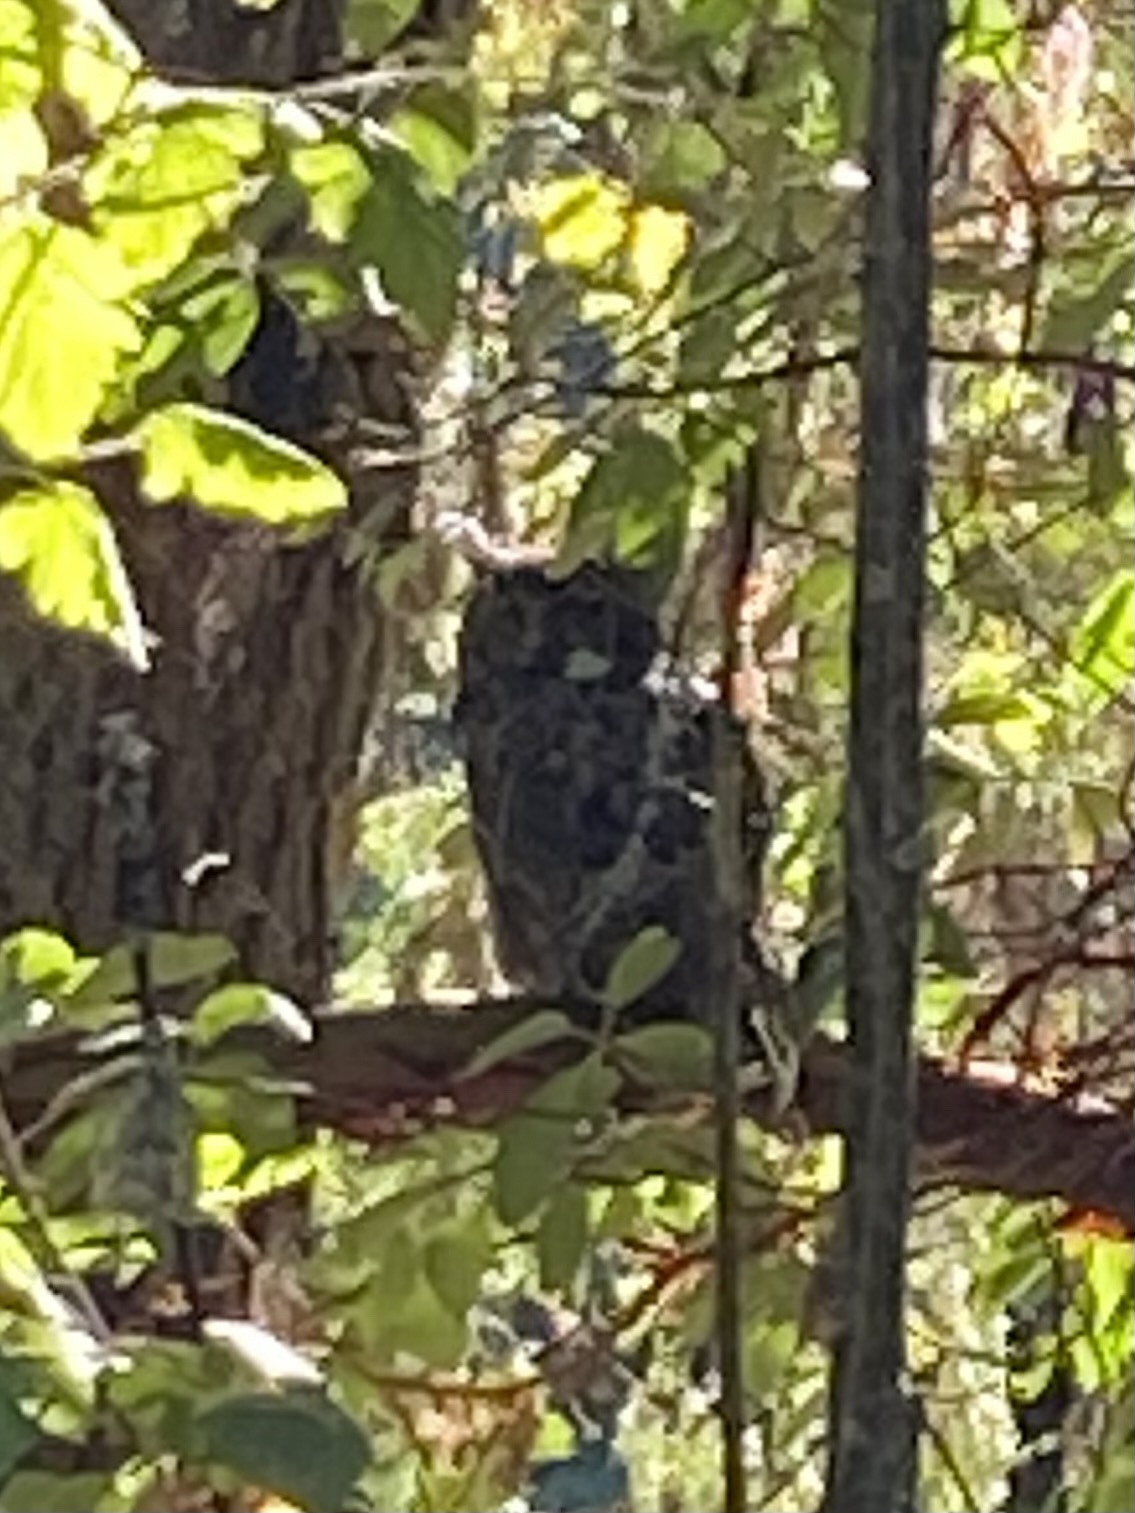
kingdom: Animalia
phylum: Chordata
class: Aves
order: Strigiformes
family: Strigidae
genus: Bubo
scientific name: Bubo virginianus
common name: Great horned owl
